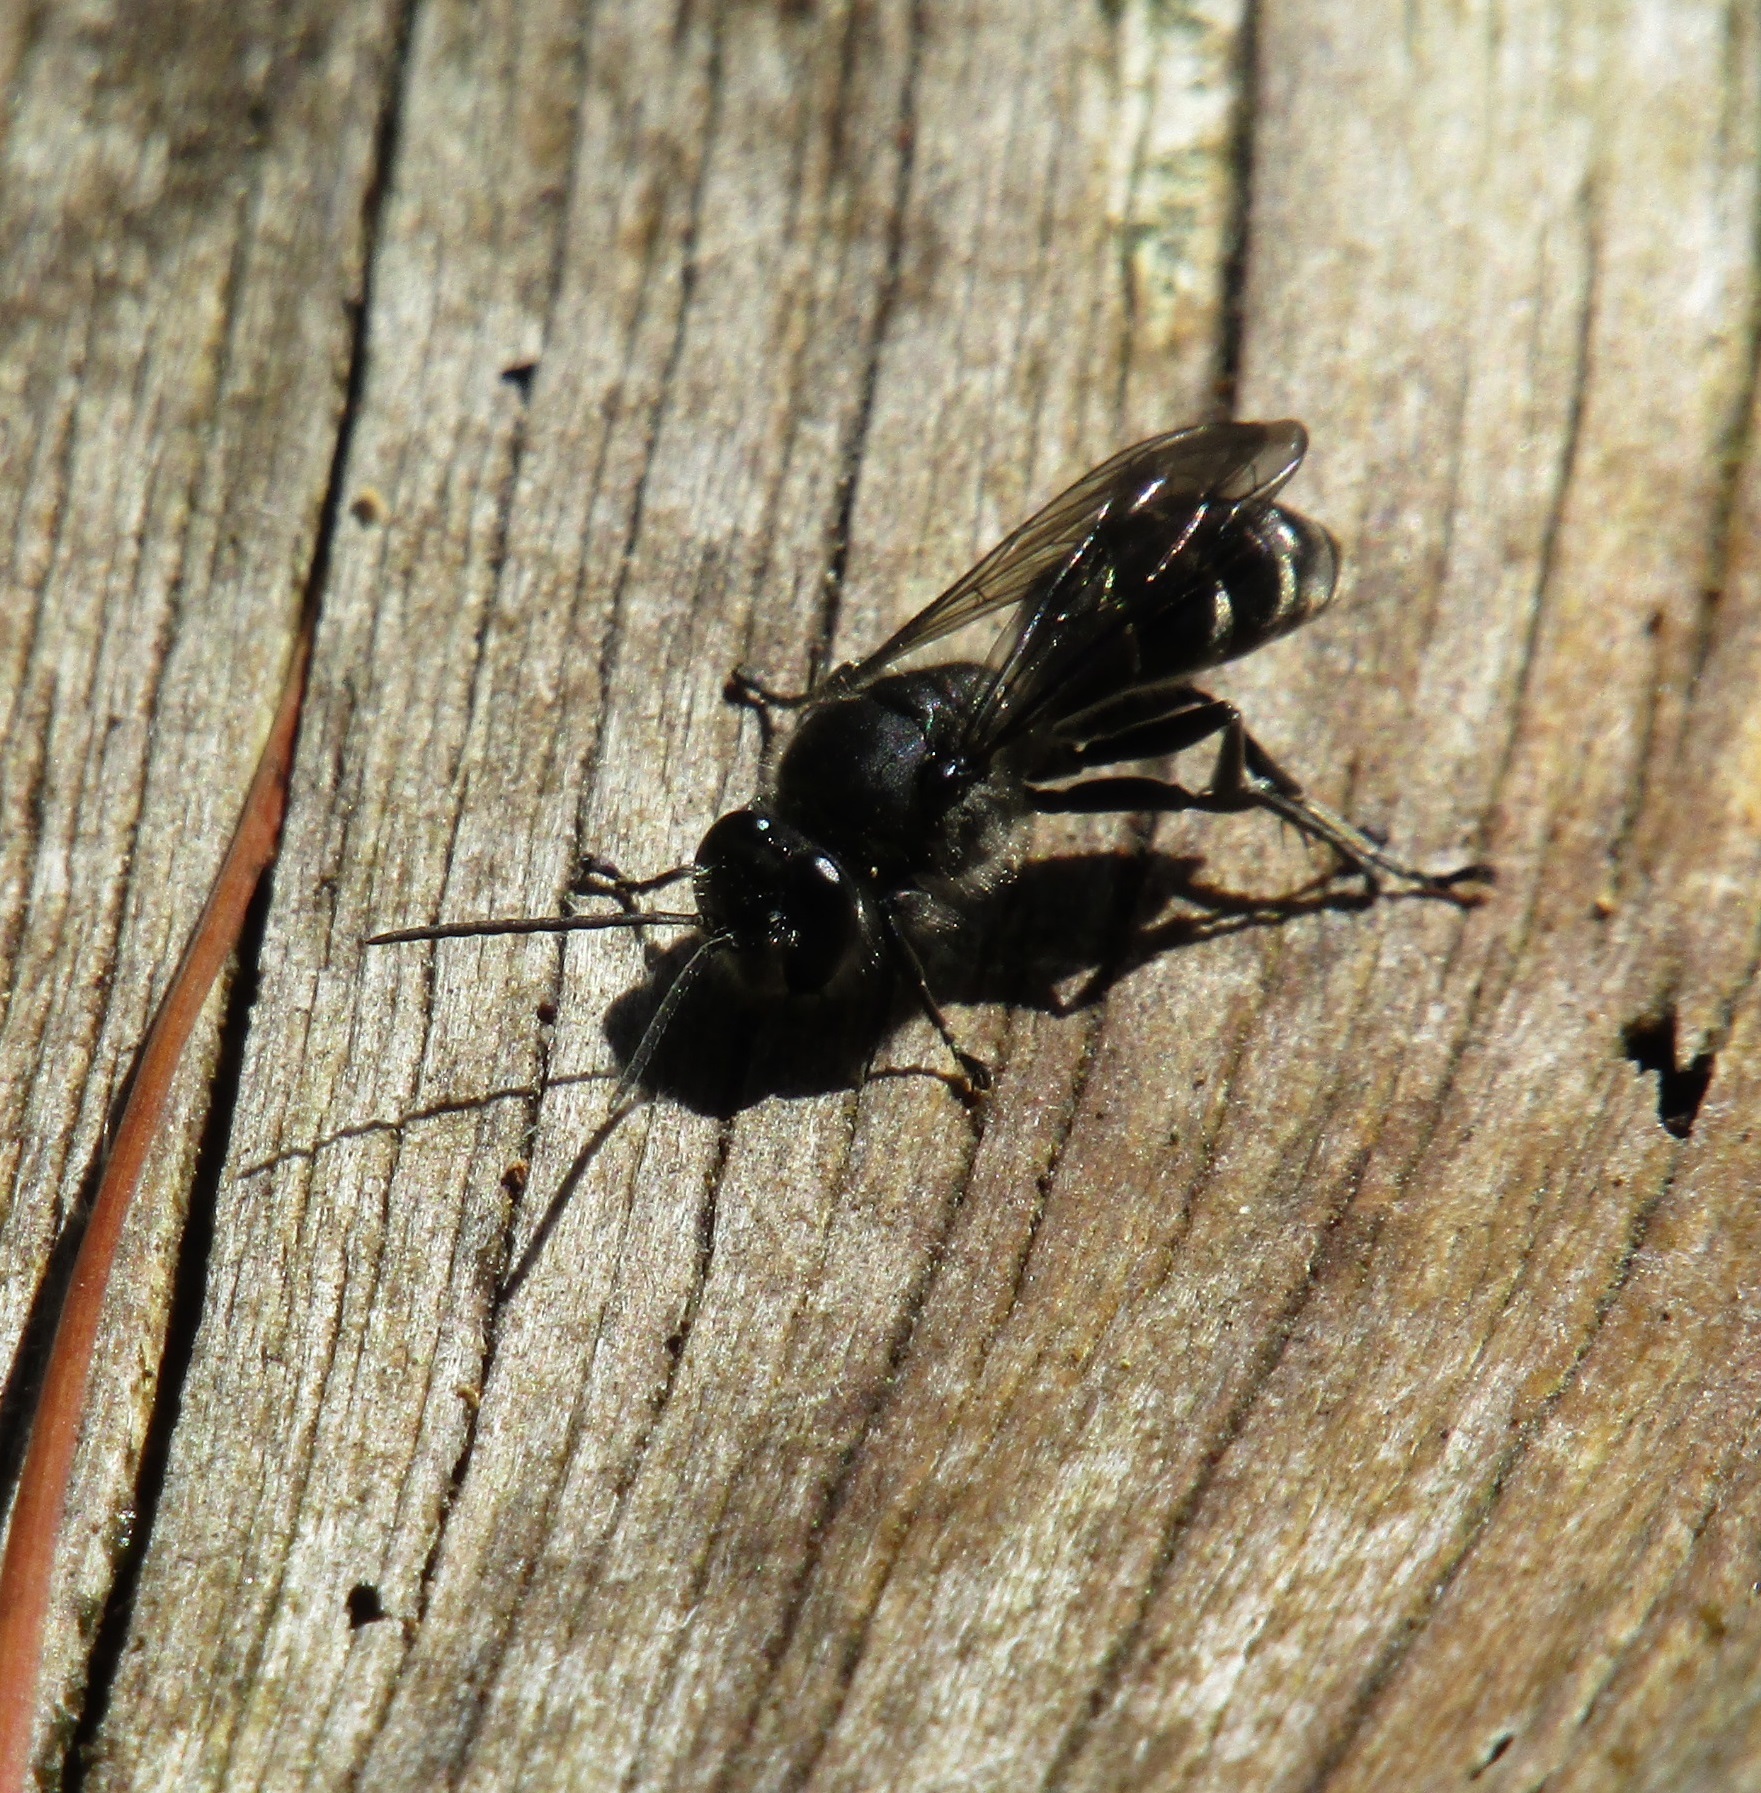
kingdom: Animalia
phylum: Arthropoda
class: Insecta
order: Hymenoptera
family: Crabronidae
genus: Pison
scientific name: Pison spinolae
